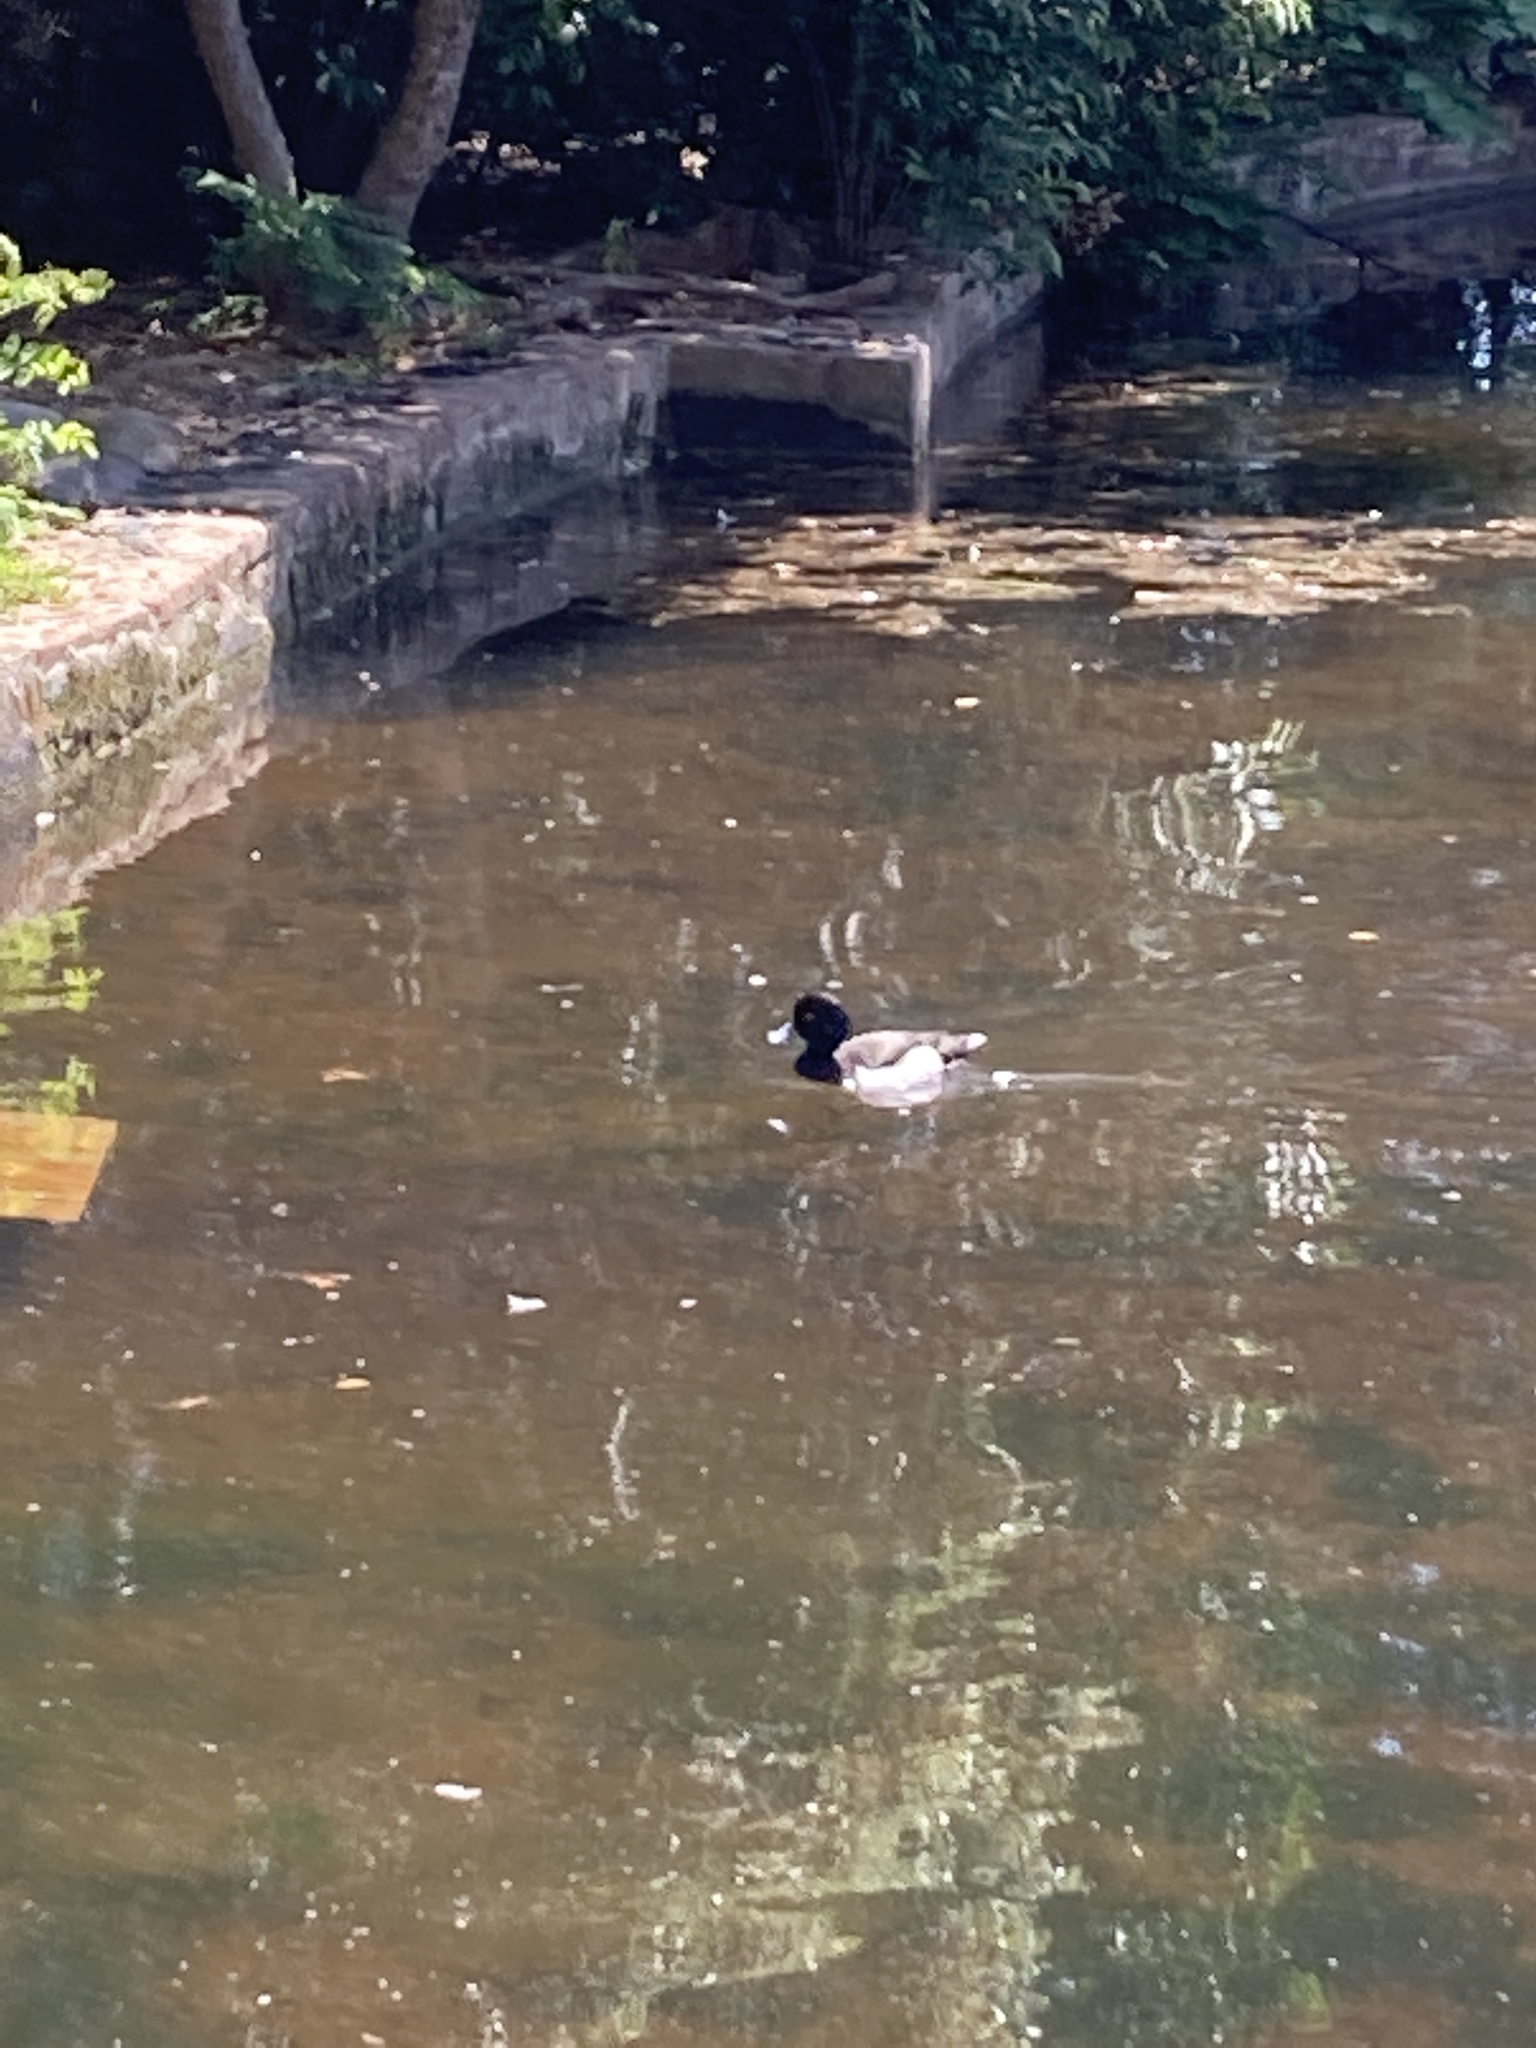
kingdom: Animalia
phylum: Chordata
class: Aves
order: Anseriformes
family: Anatidae
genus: Aythya
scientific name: Aythya fuligula
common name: Tufted duck
